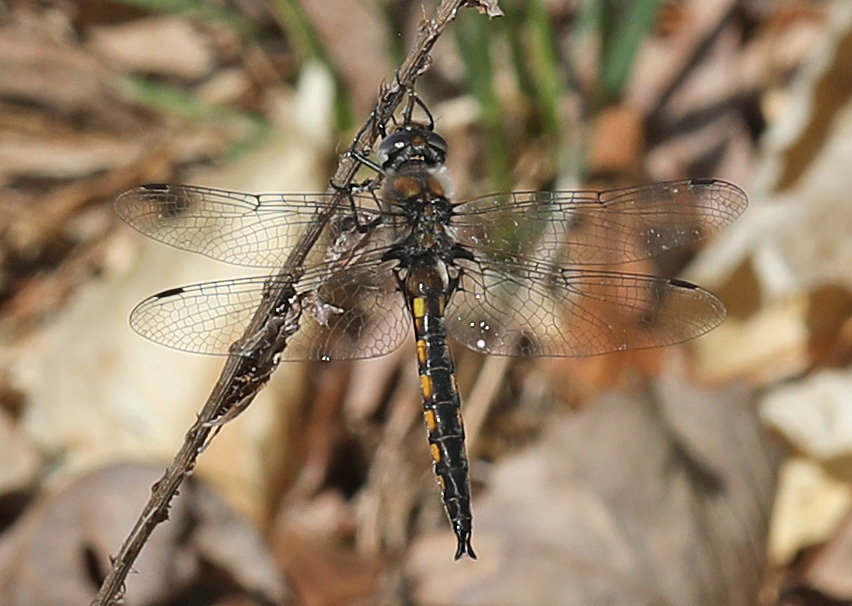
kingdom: Animalia
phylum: Arthropoda
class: Insecta
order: Odonata
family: Corduliidae
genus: Epitheca
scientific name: Epitheca cynosura
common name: Common baskettail
